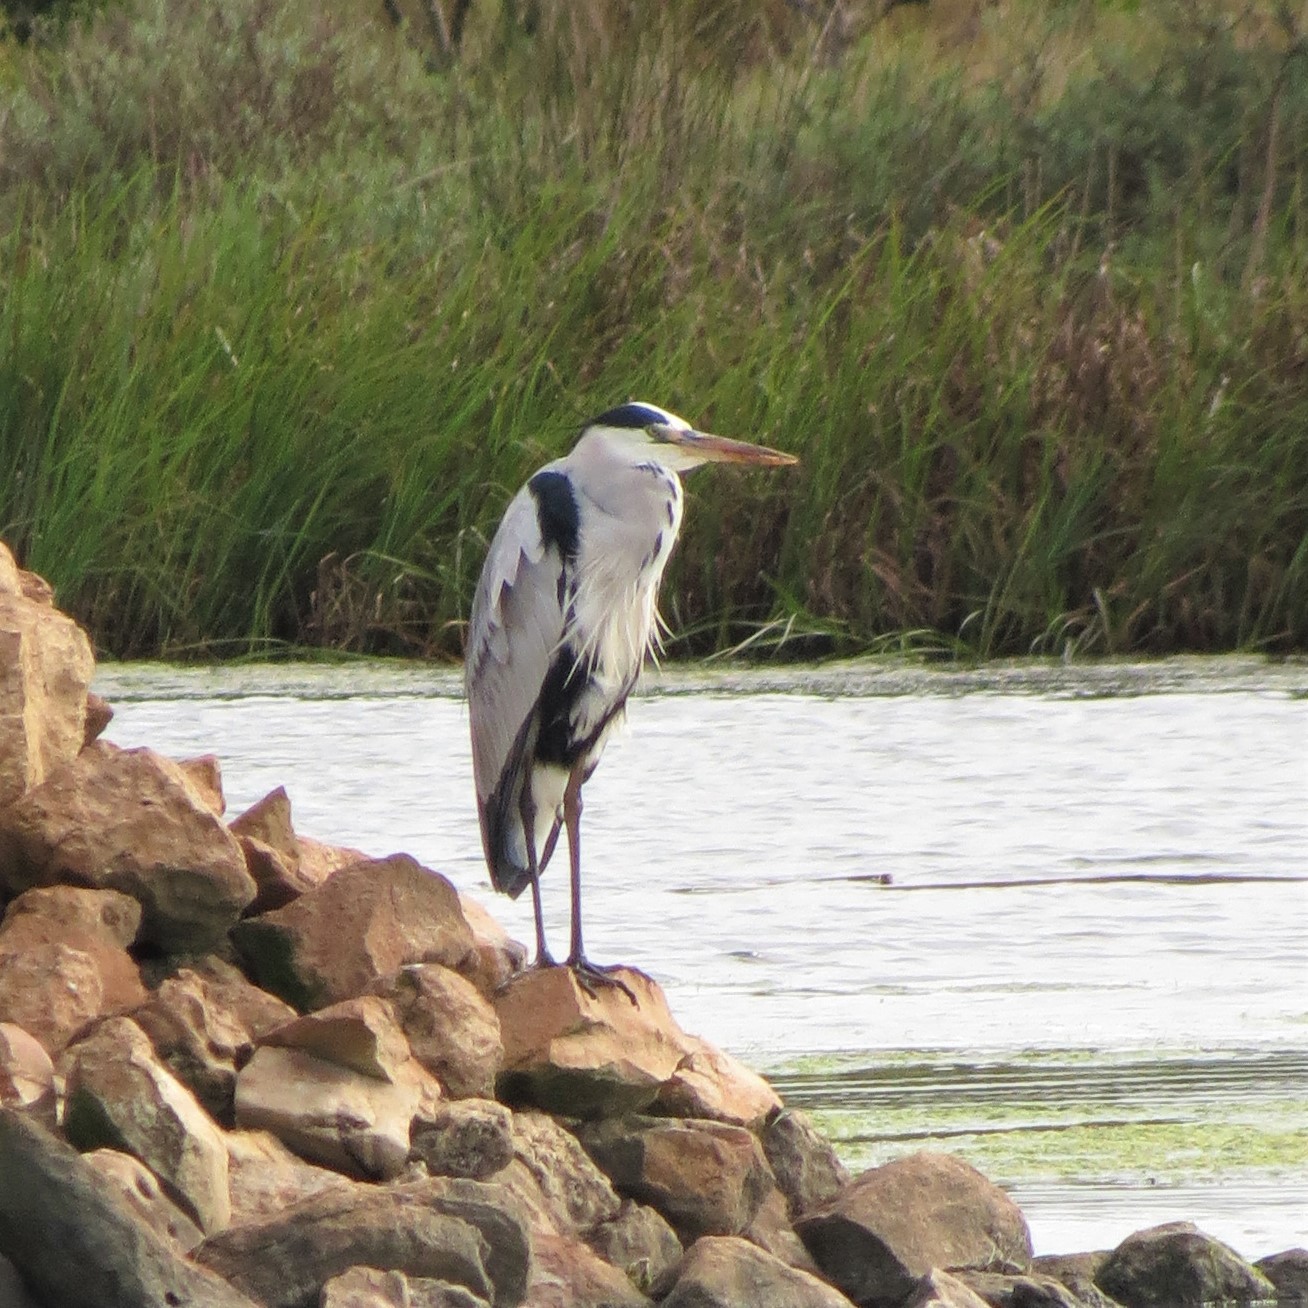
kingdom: Animalia
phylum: Chordata
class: Aves
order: Pelecaniformes
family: Ardeidae
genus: Ardea
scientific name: Ardea cinerea
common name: Grey heron
